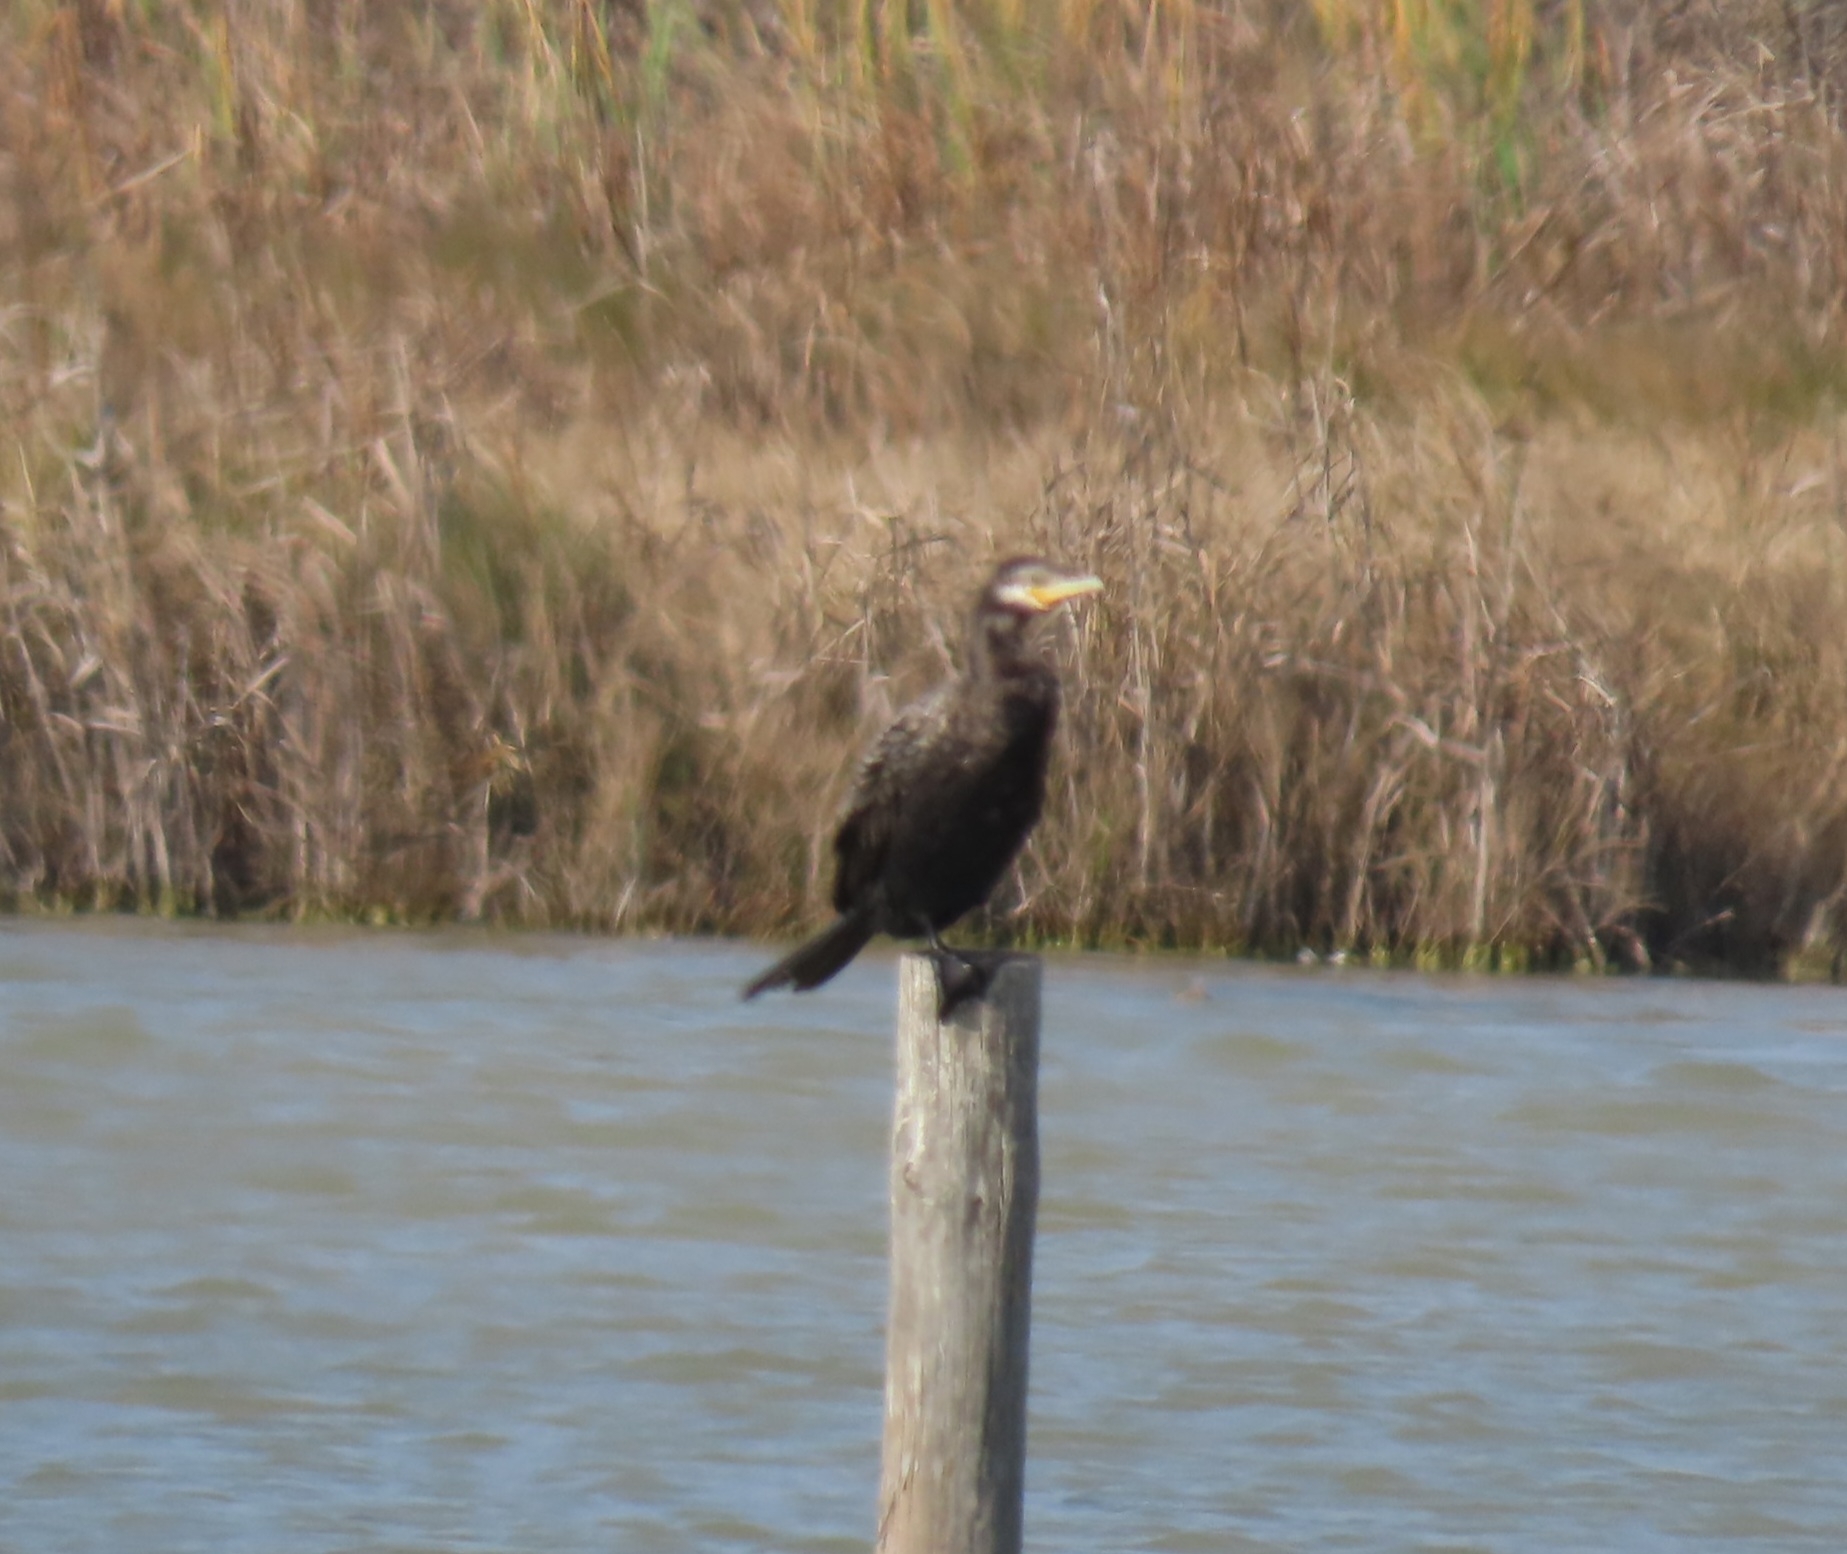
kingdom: Animalia
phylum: Chordata
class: Aves
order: Suliformes
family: Phalacrocoracidae
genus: Phalacrocorax
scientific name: Phalacrocorax brasilianus
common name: Neotropic cormorant
